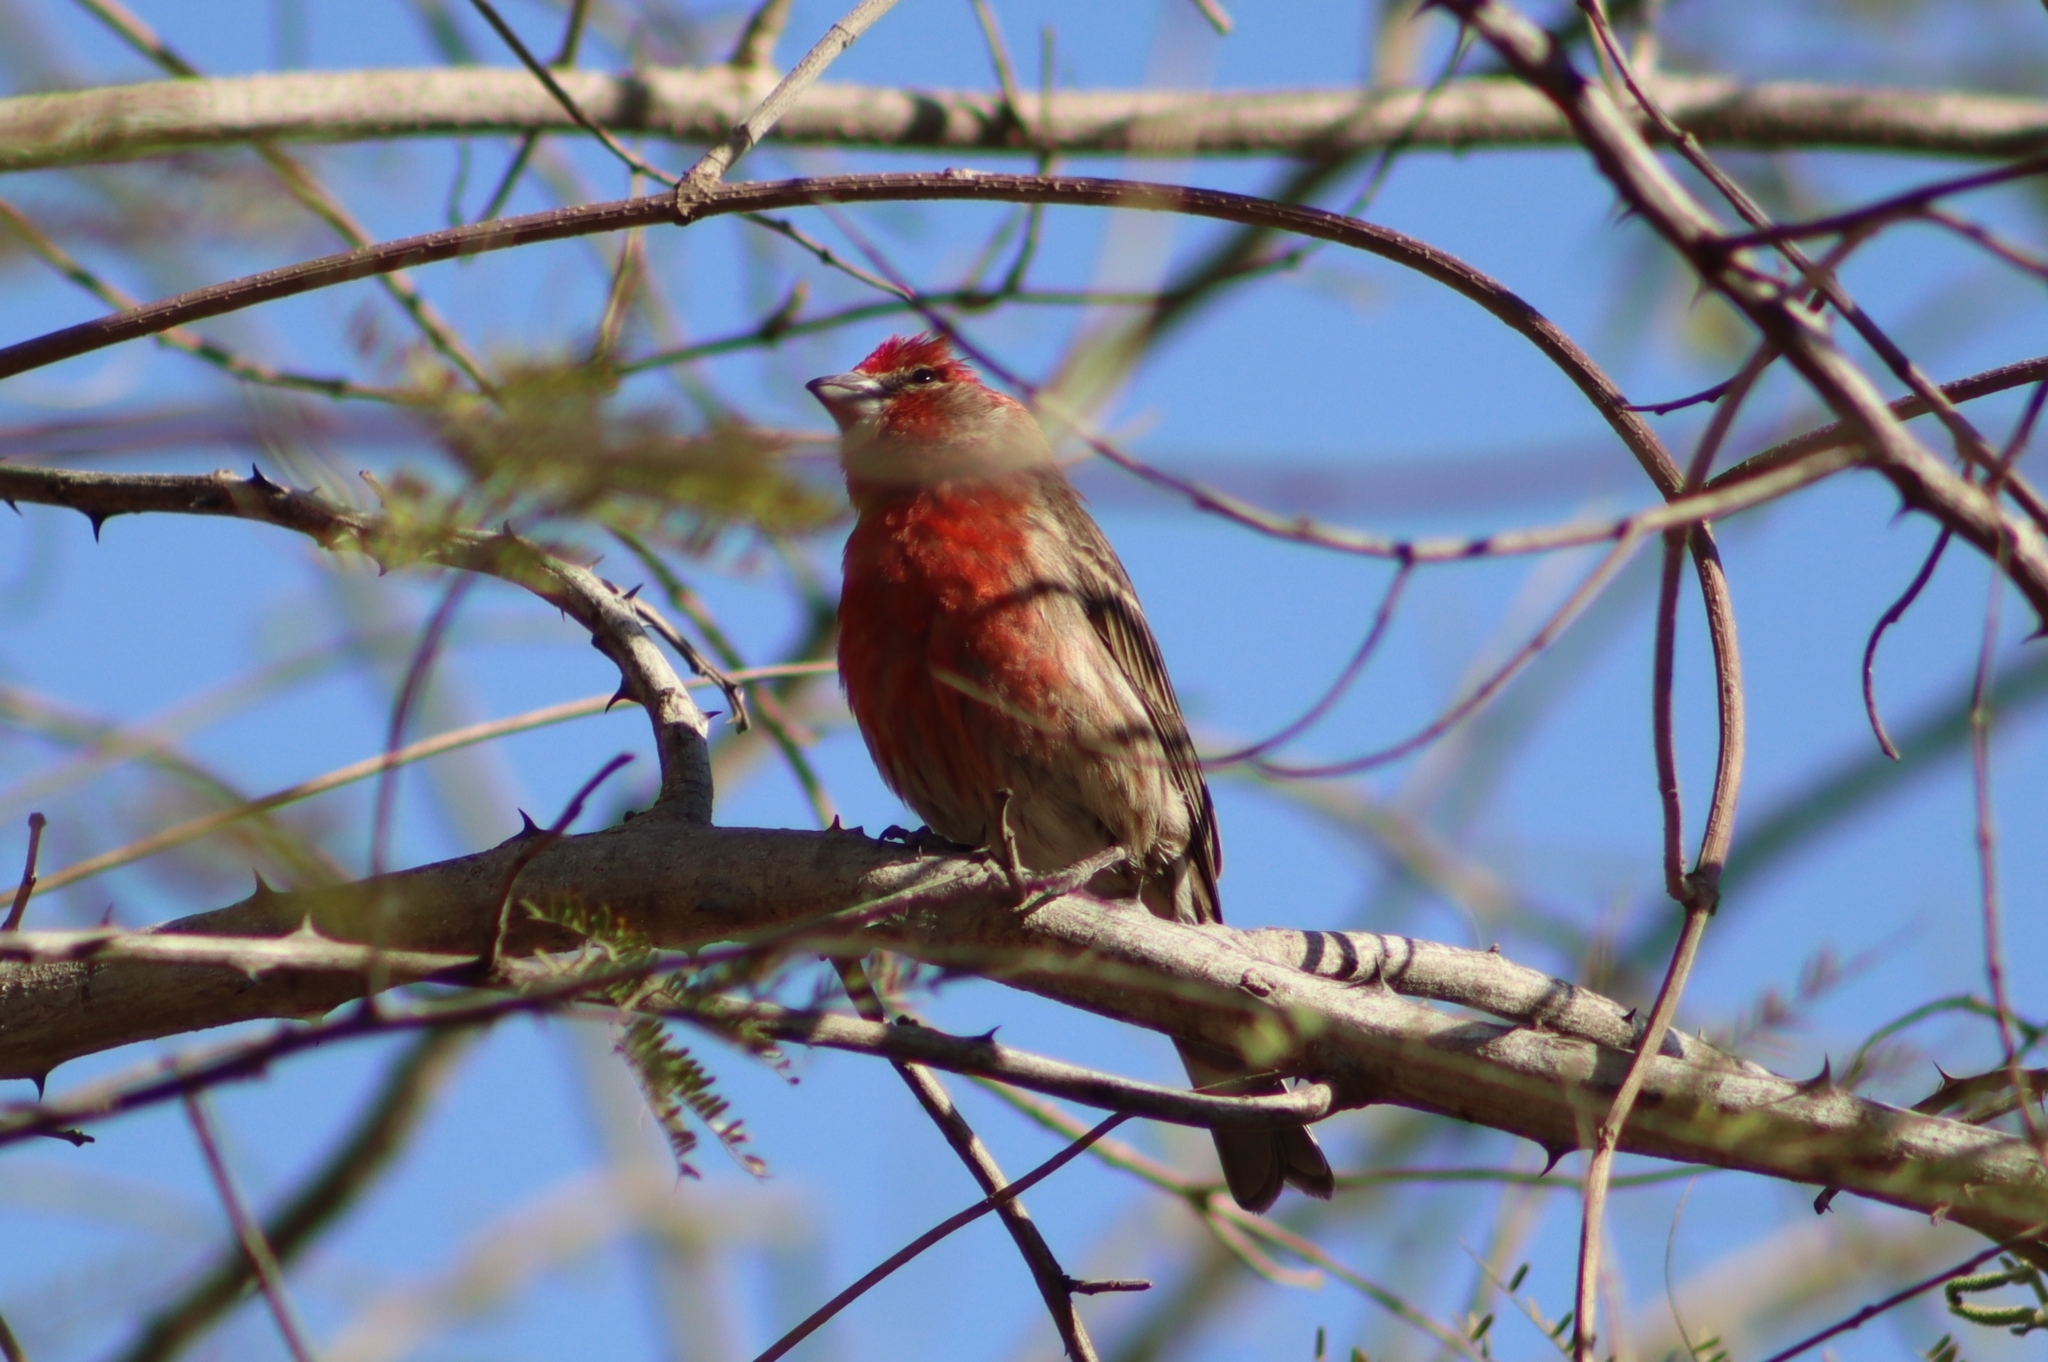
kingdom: Animalia
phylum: Chordata
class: Aves
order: Passeriformes
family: Fringillidae
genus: Haemorhous
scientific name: Haemorhous mexicanus
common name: House finch
